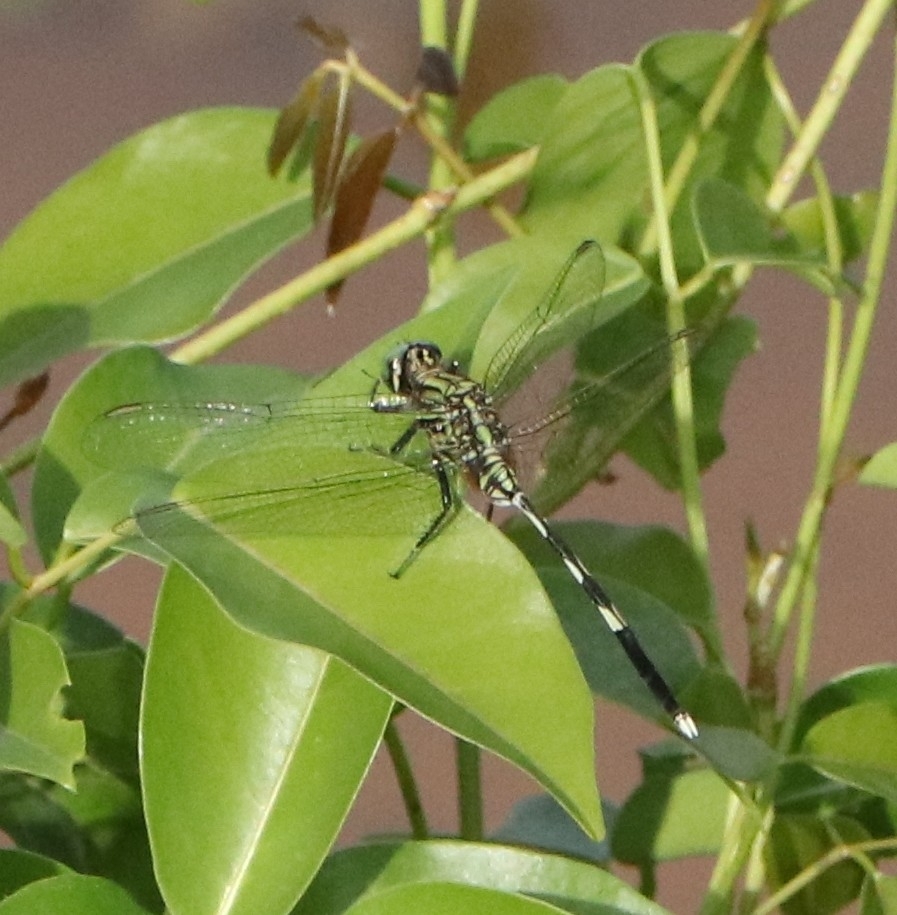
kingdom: Animalia
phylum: Arthropoda
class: Insecta
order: Odonata
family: Libellulidae
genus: Orthetrum
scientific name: Orthetrum sabina
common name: Slender skimmer
